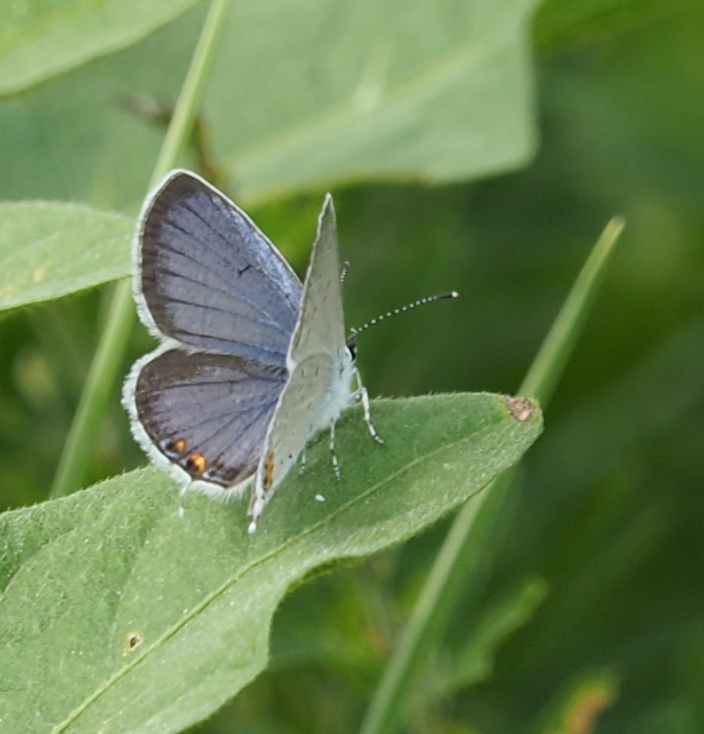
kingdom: Animalia
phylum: Arthropoda
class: Insecta
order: Lepidoptera
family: Lycaenidae
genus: Elkalyce
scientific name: Elkalyce comyntas
